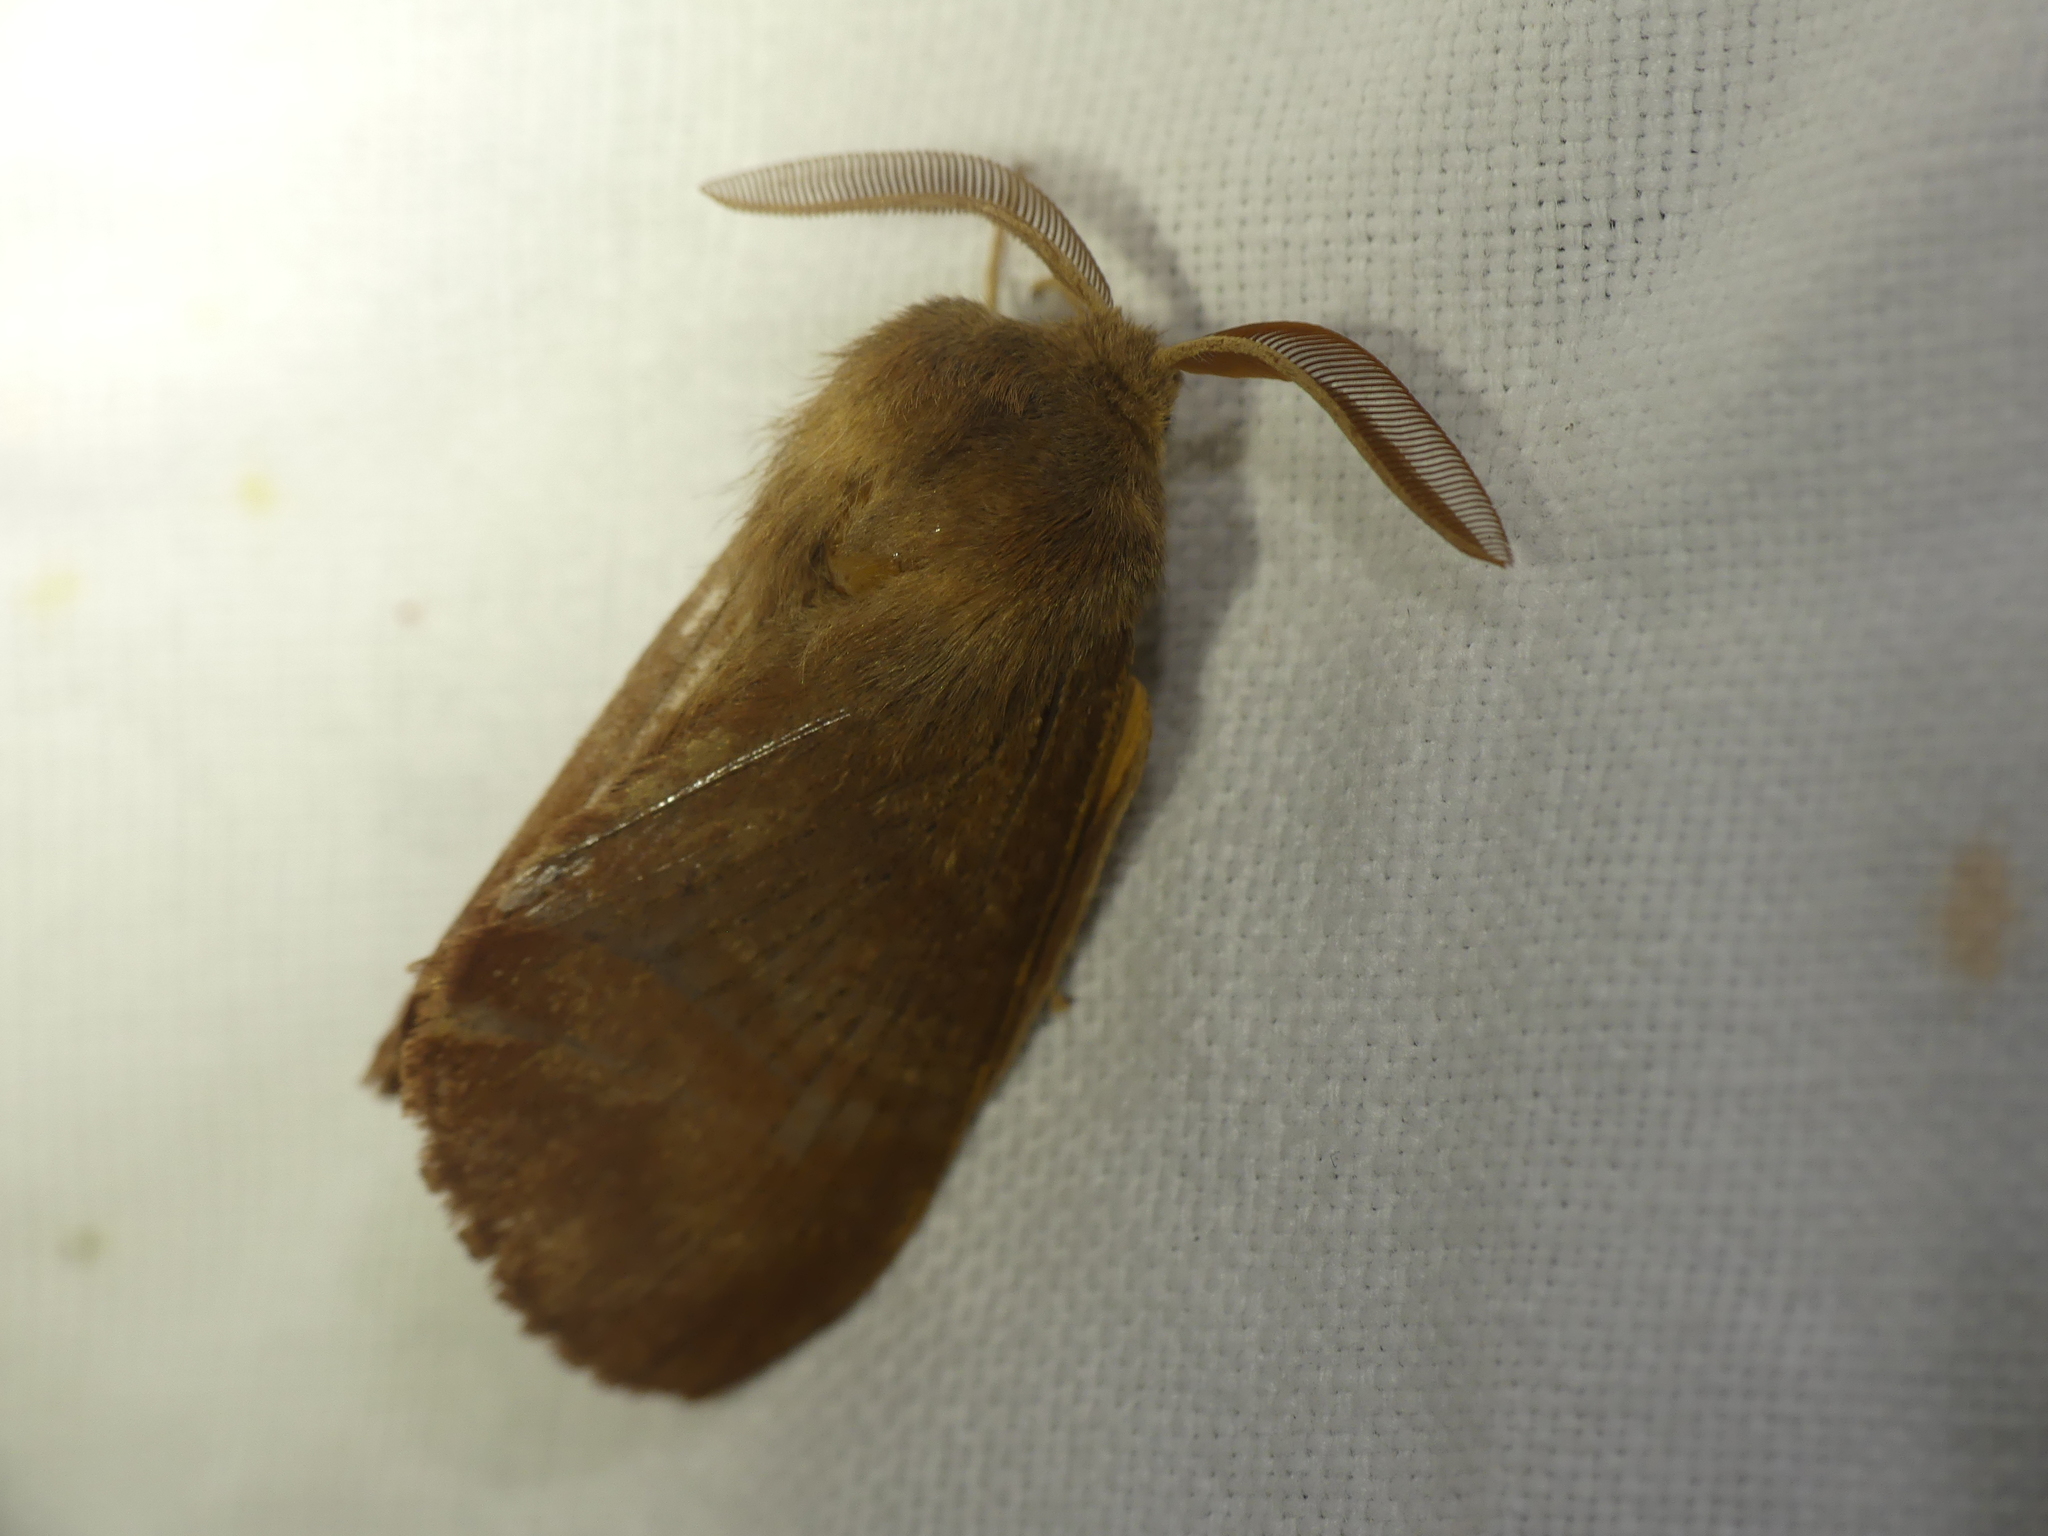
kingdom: Animalia
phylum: Arthropoda
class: Insecta
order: Lepidoptera
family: Lasiocampidae
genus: Dendrolimus
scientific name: Dendrolimus pini
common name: Pine-tree lappet
